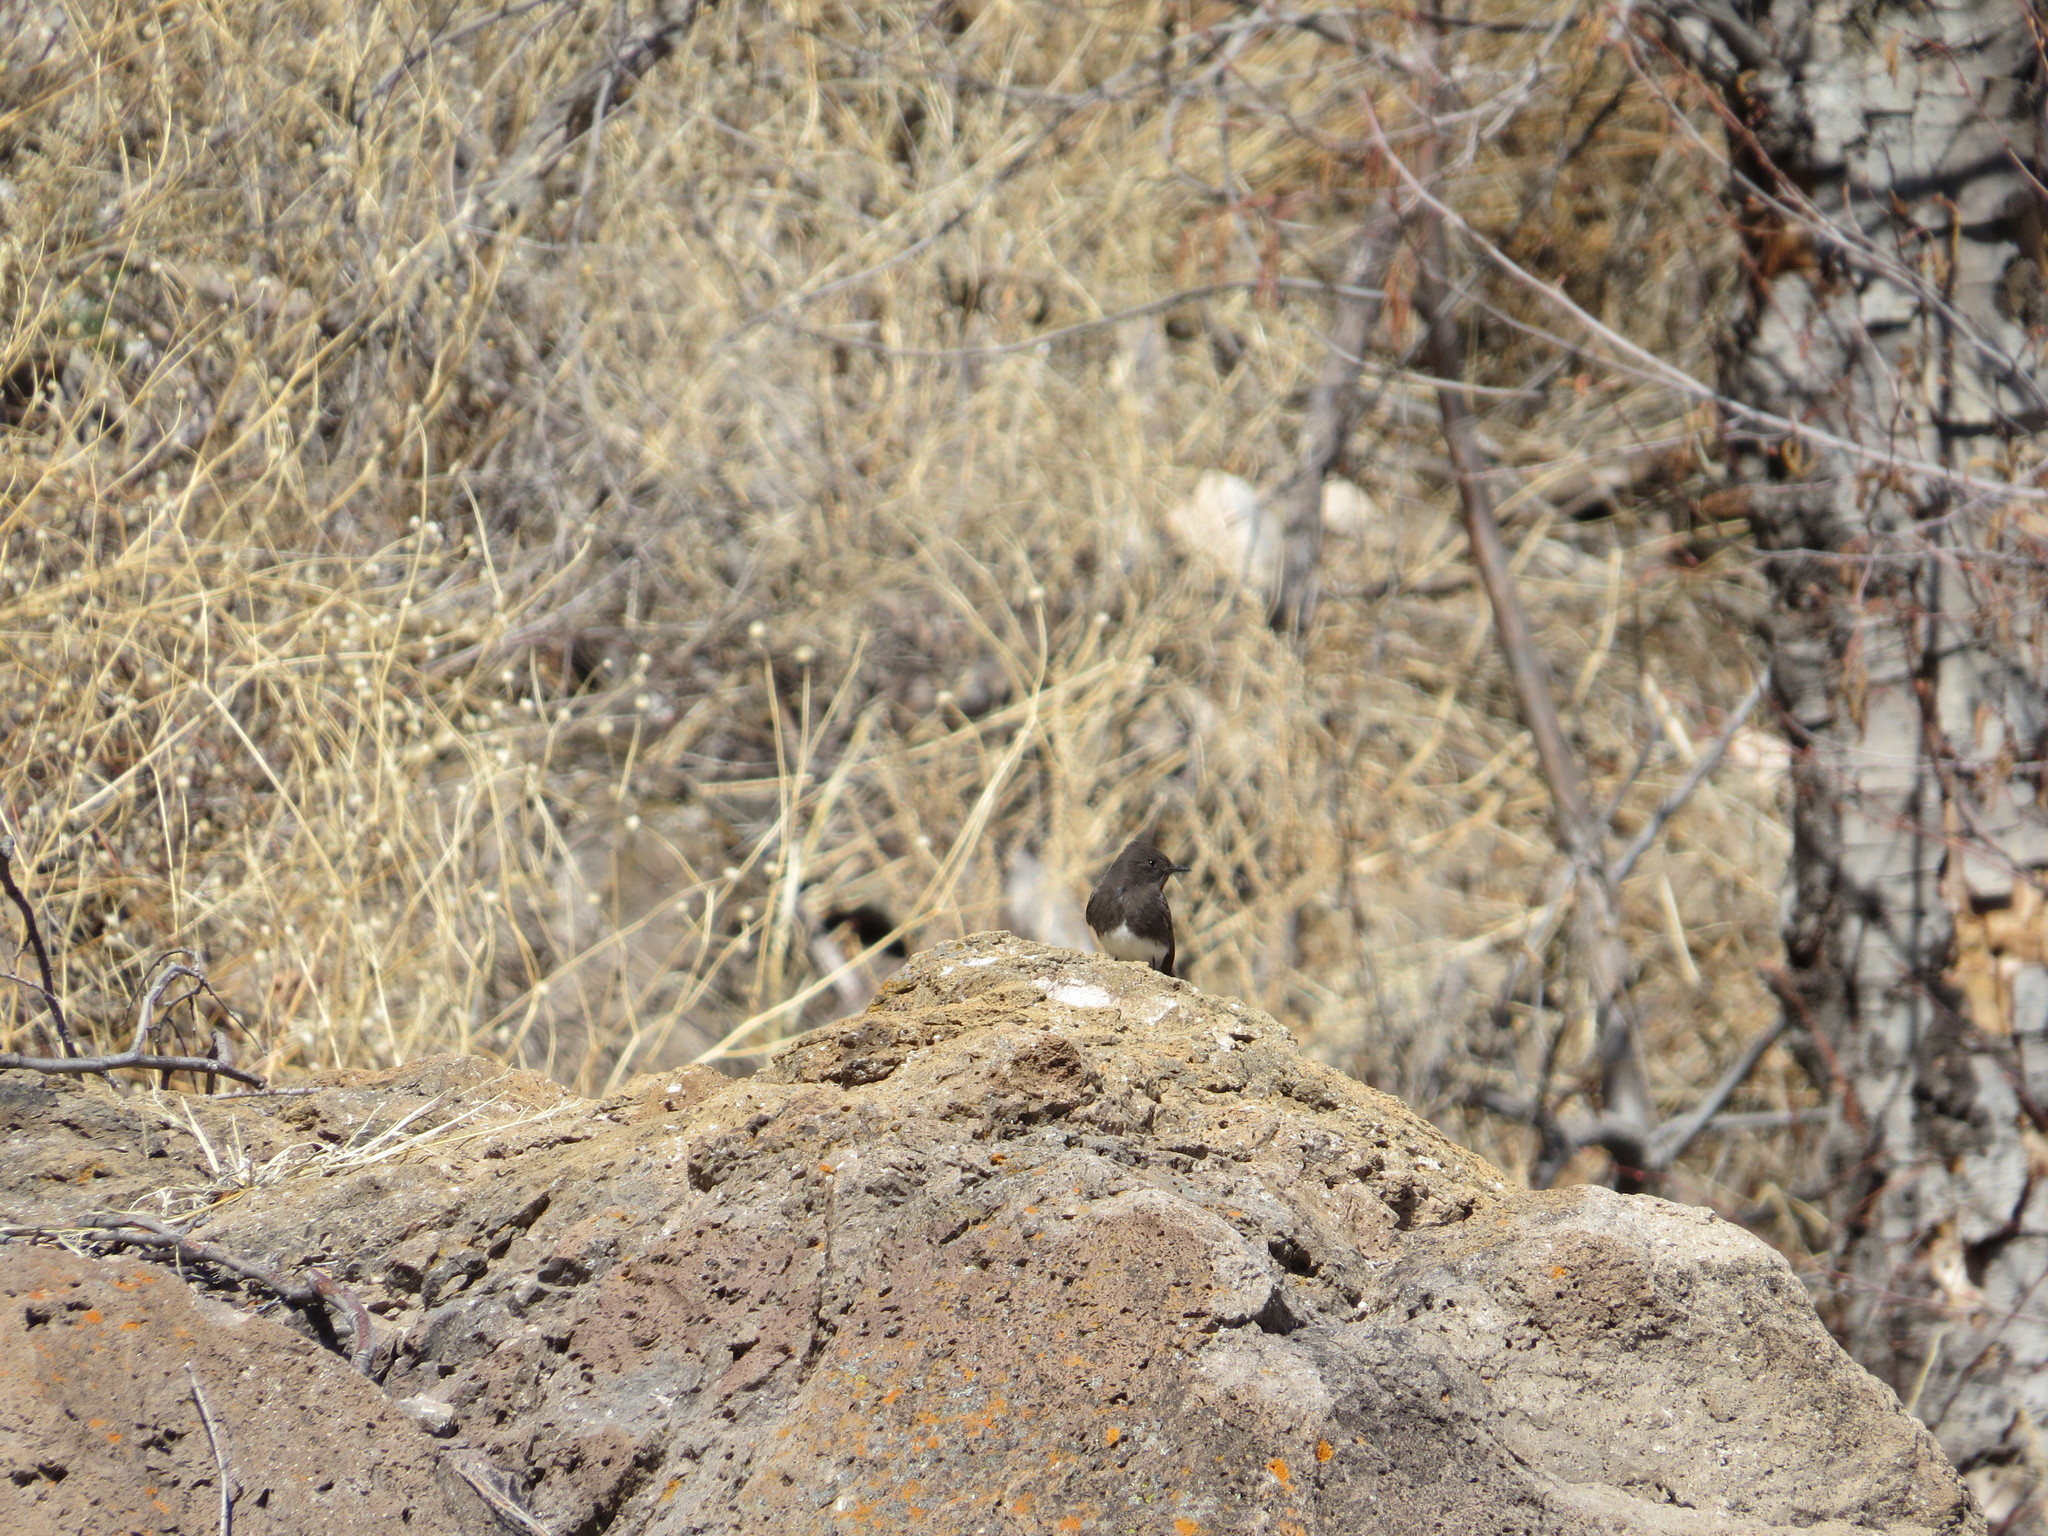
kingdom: Animalia
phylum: Chordata
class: Aves
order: Passeriformes
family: Tyrannidae
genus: Sayornis
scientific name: Sayornis nigricans
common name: Black phoebe
